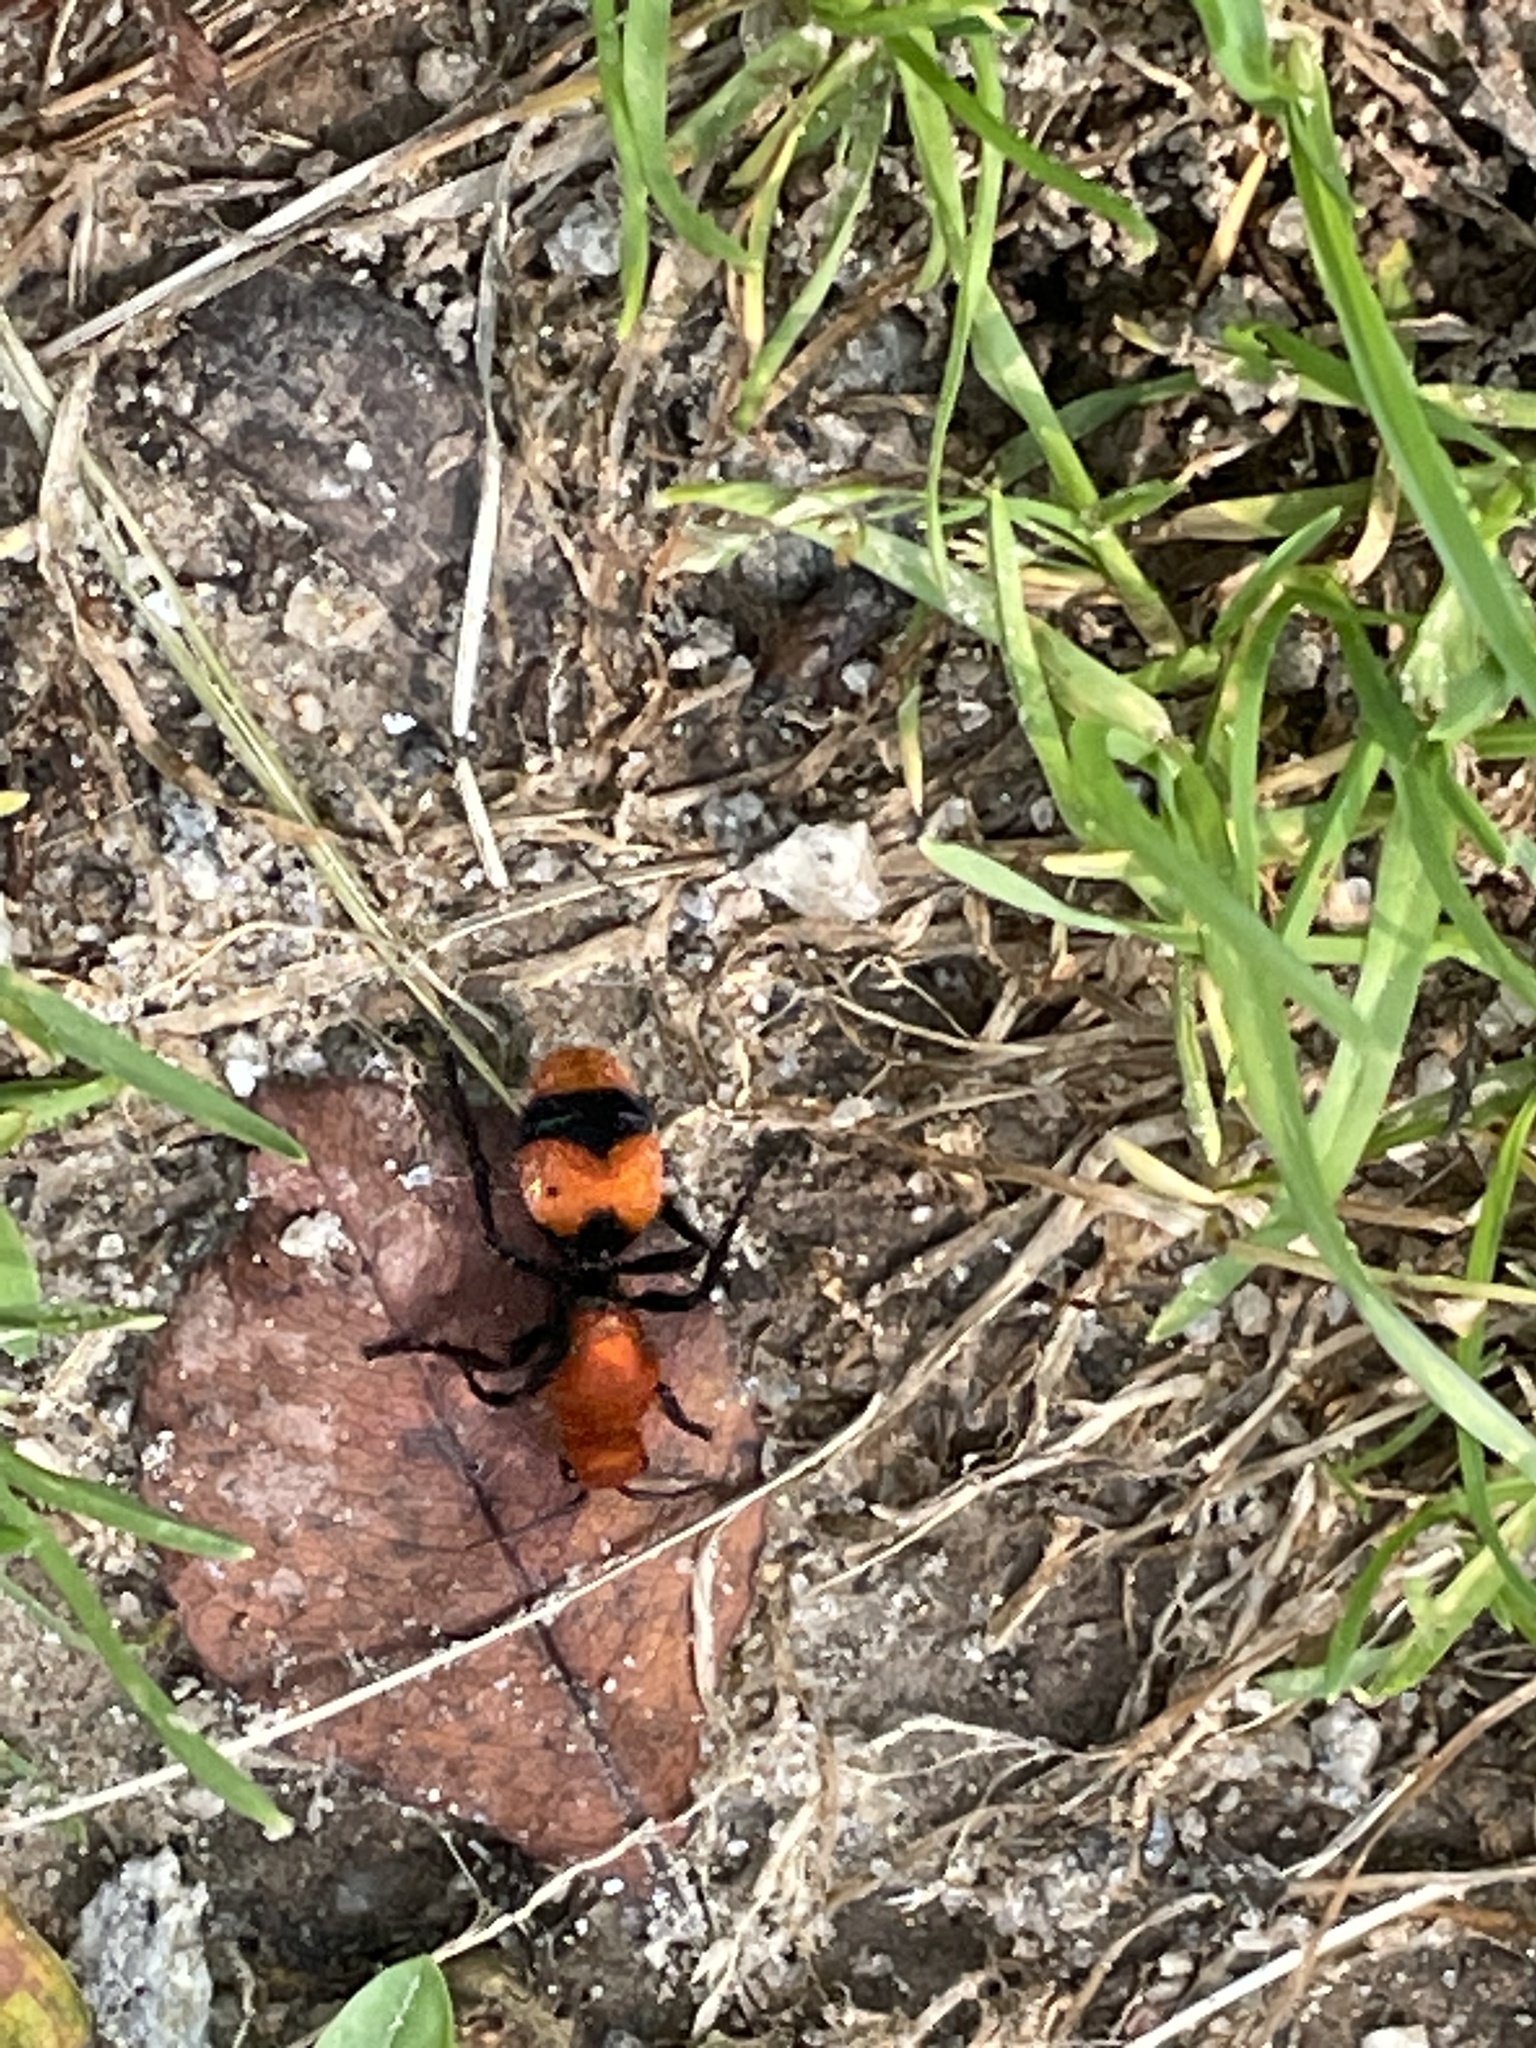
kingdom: Animalia
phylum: Arthropoda
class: Insecta
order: Hymenoptera
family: Mutillidae
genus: Dasymutilla
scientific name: Dasymutilla occidentalis
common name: Common eastern velvet ant
